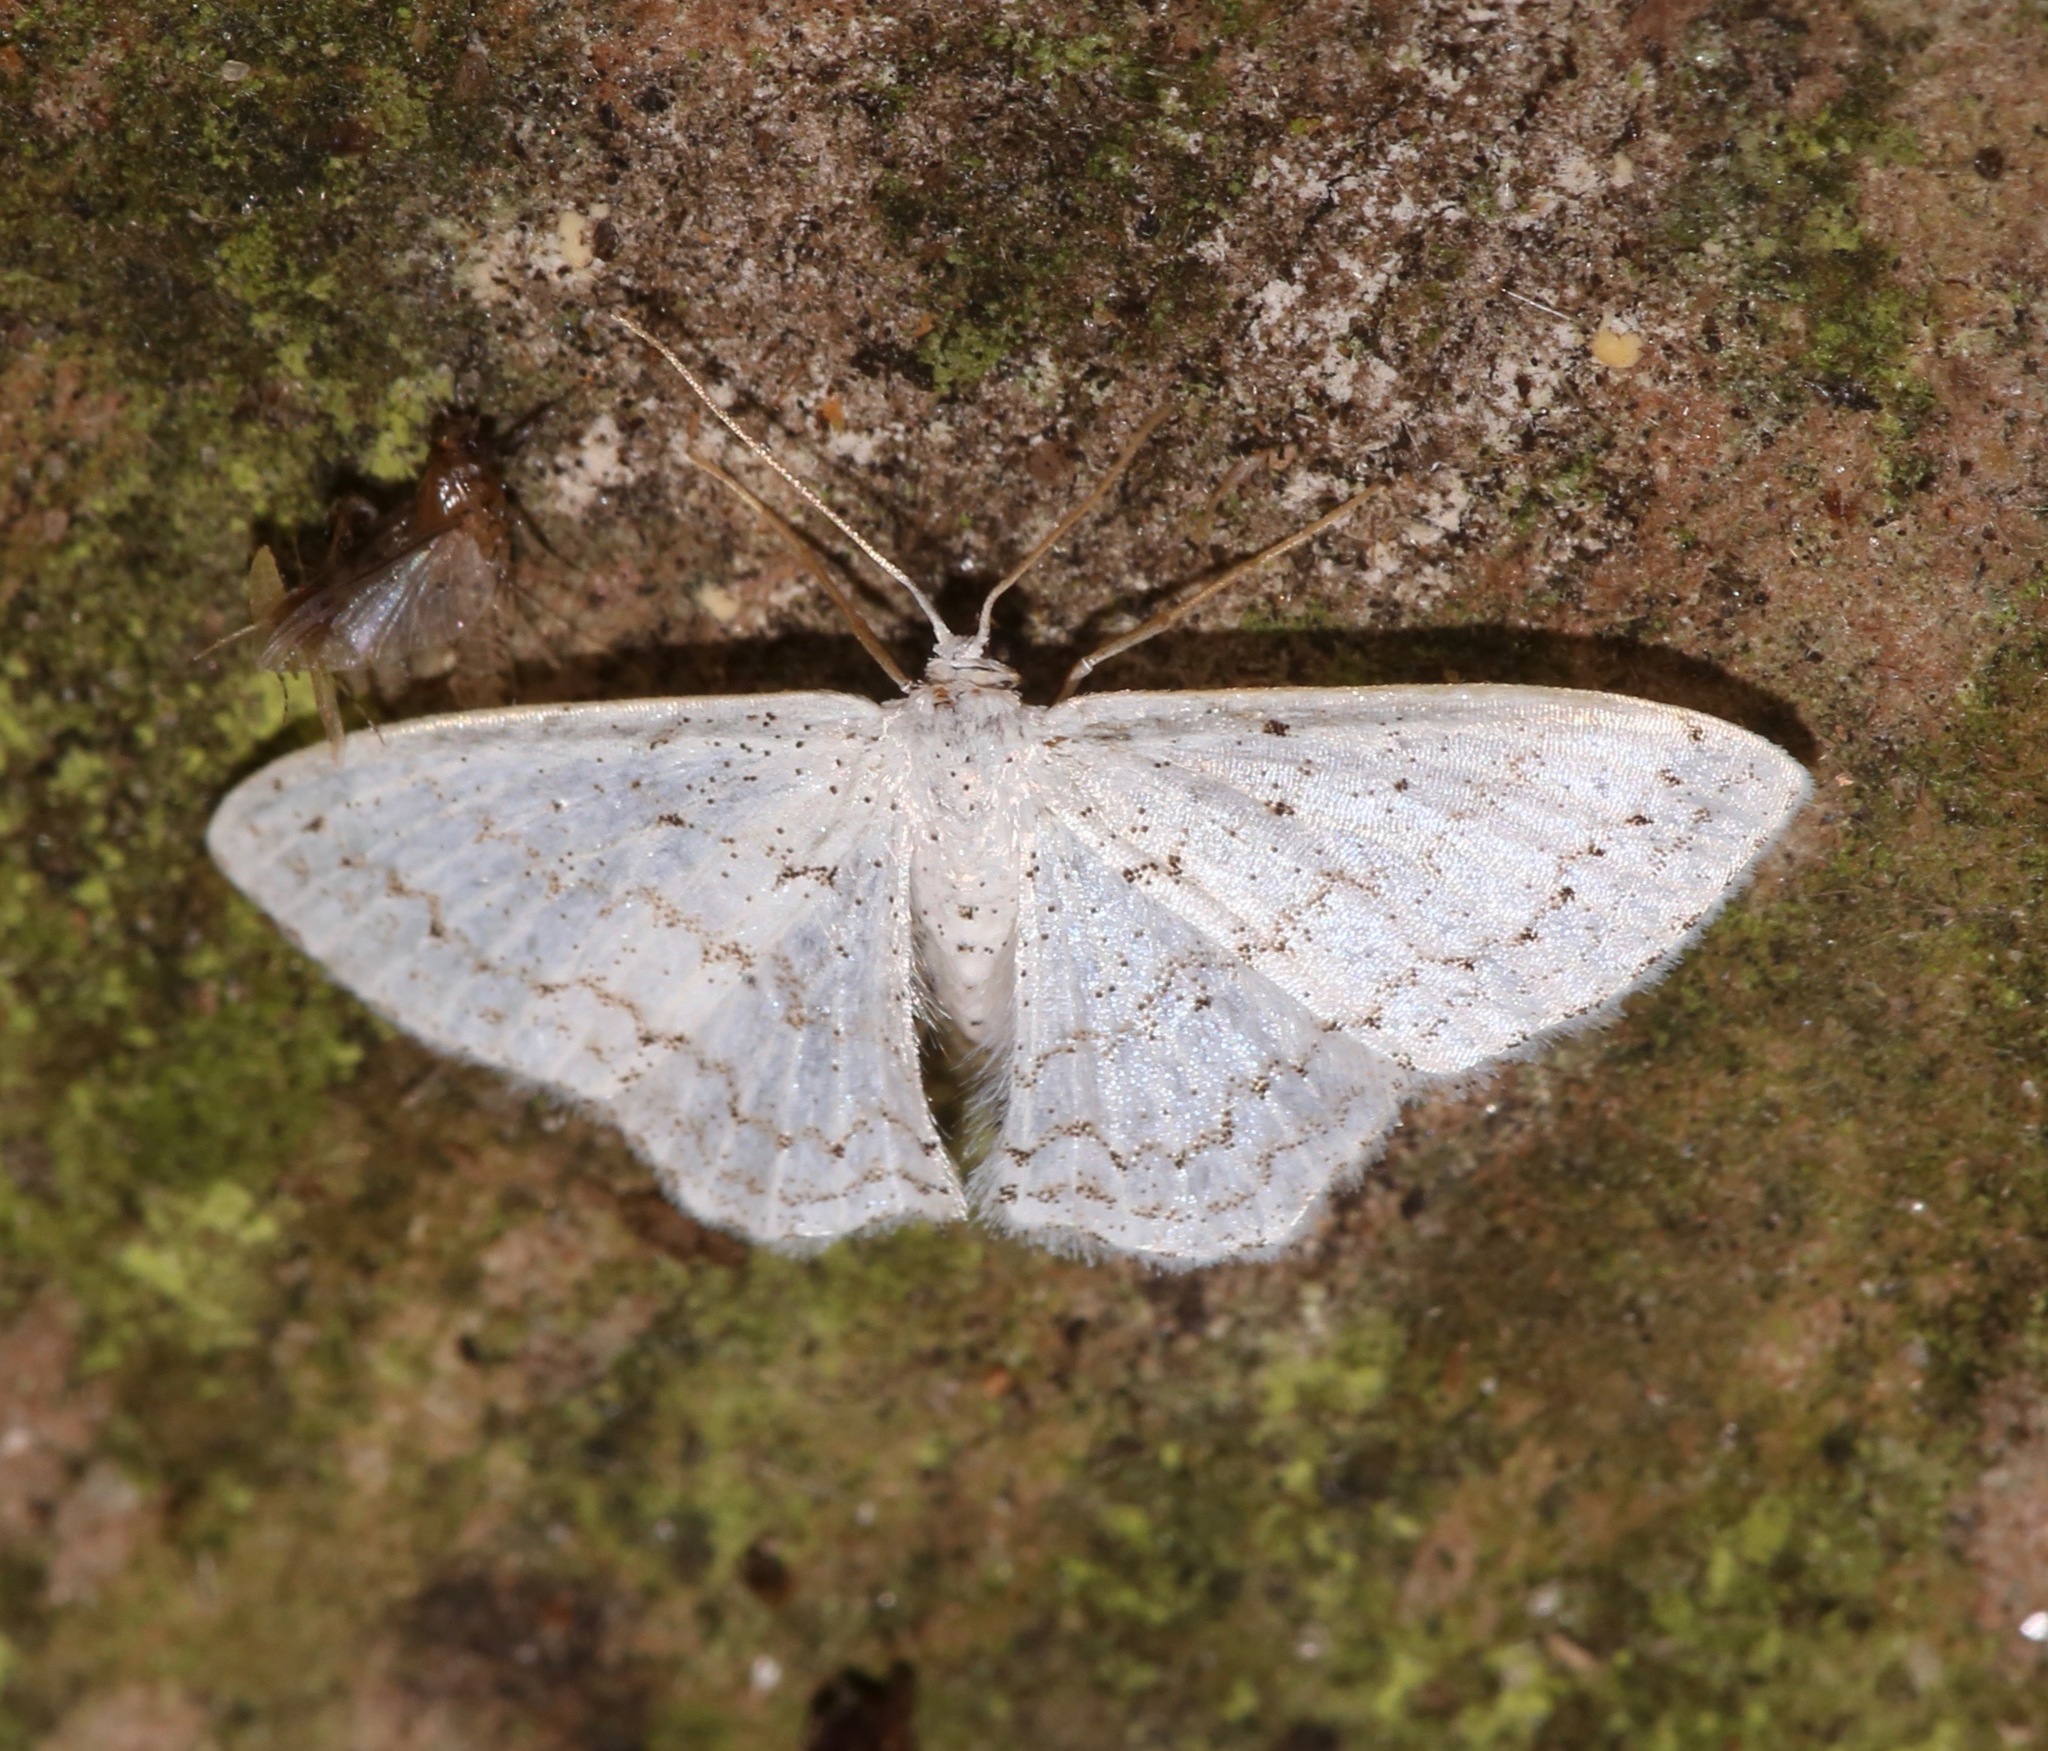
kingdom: Animalia
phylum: Arthropoda
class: Insecta
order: Lepidoptera
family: Geometridae
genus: Idaea
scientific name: Idaea tacturata
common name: Dot-lined wave
